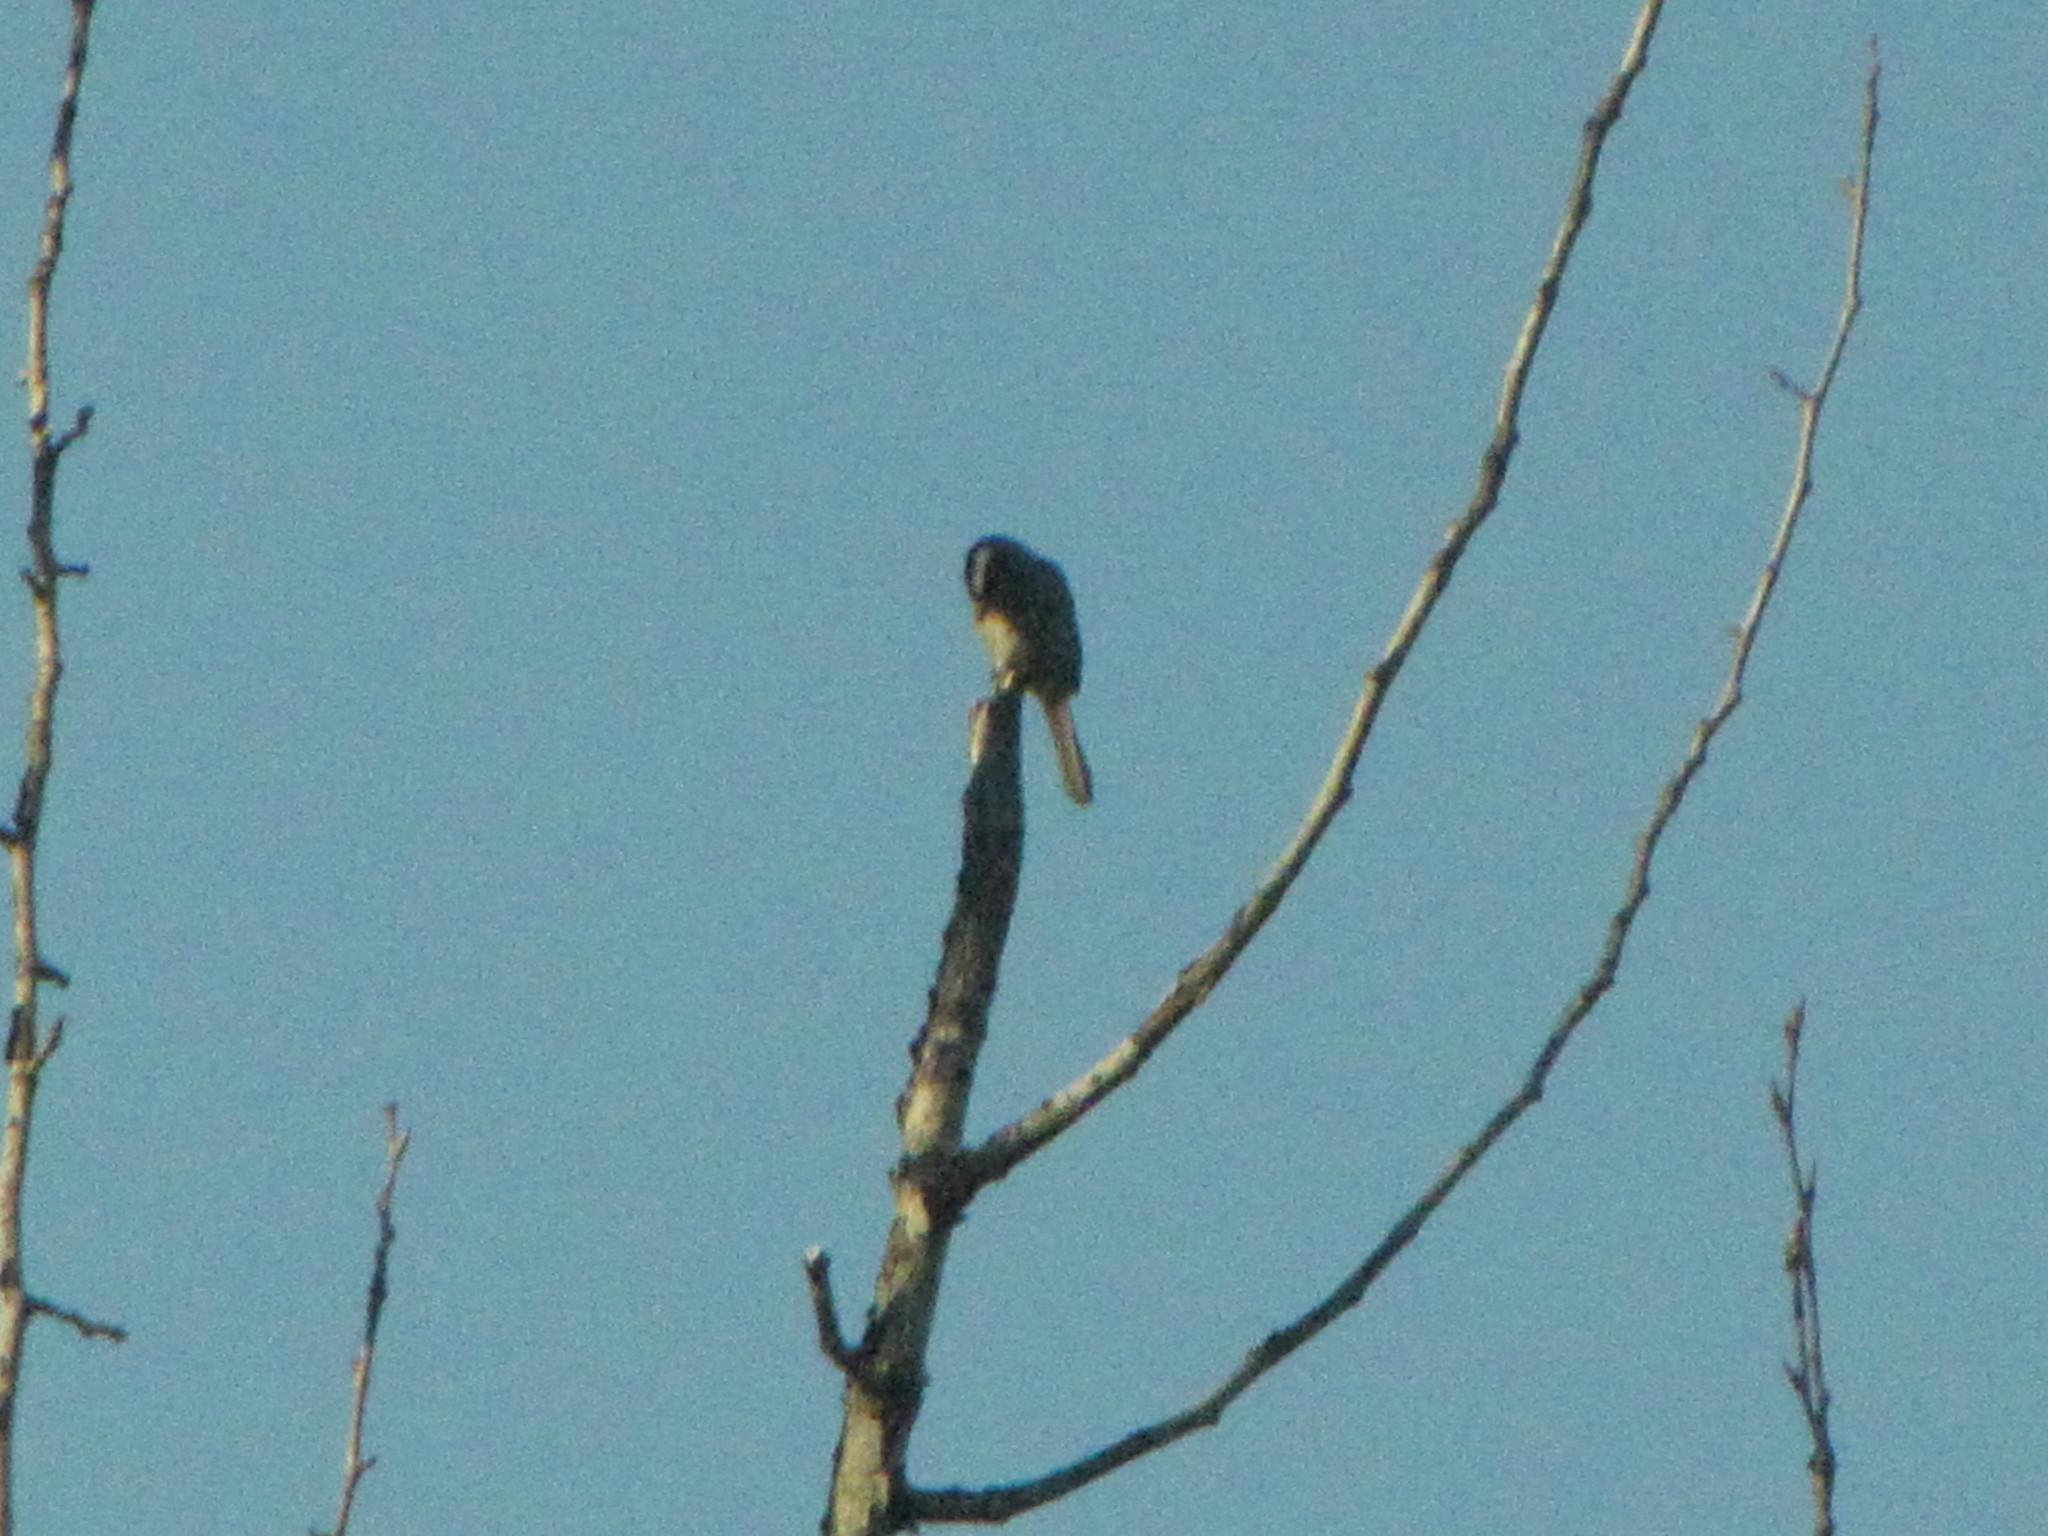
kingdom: Animalia
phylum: Chordata
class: Aves
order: Passeriformes
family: Passerellidae
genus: Zonotrichia
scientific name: Zonotrichia leucophrys
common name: White-crowned sparrow
